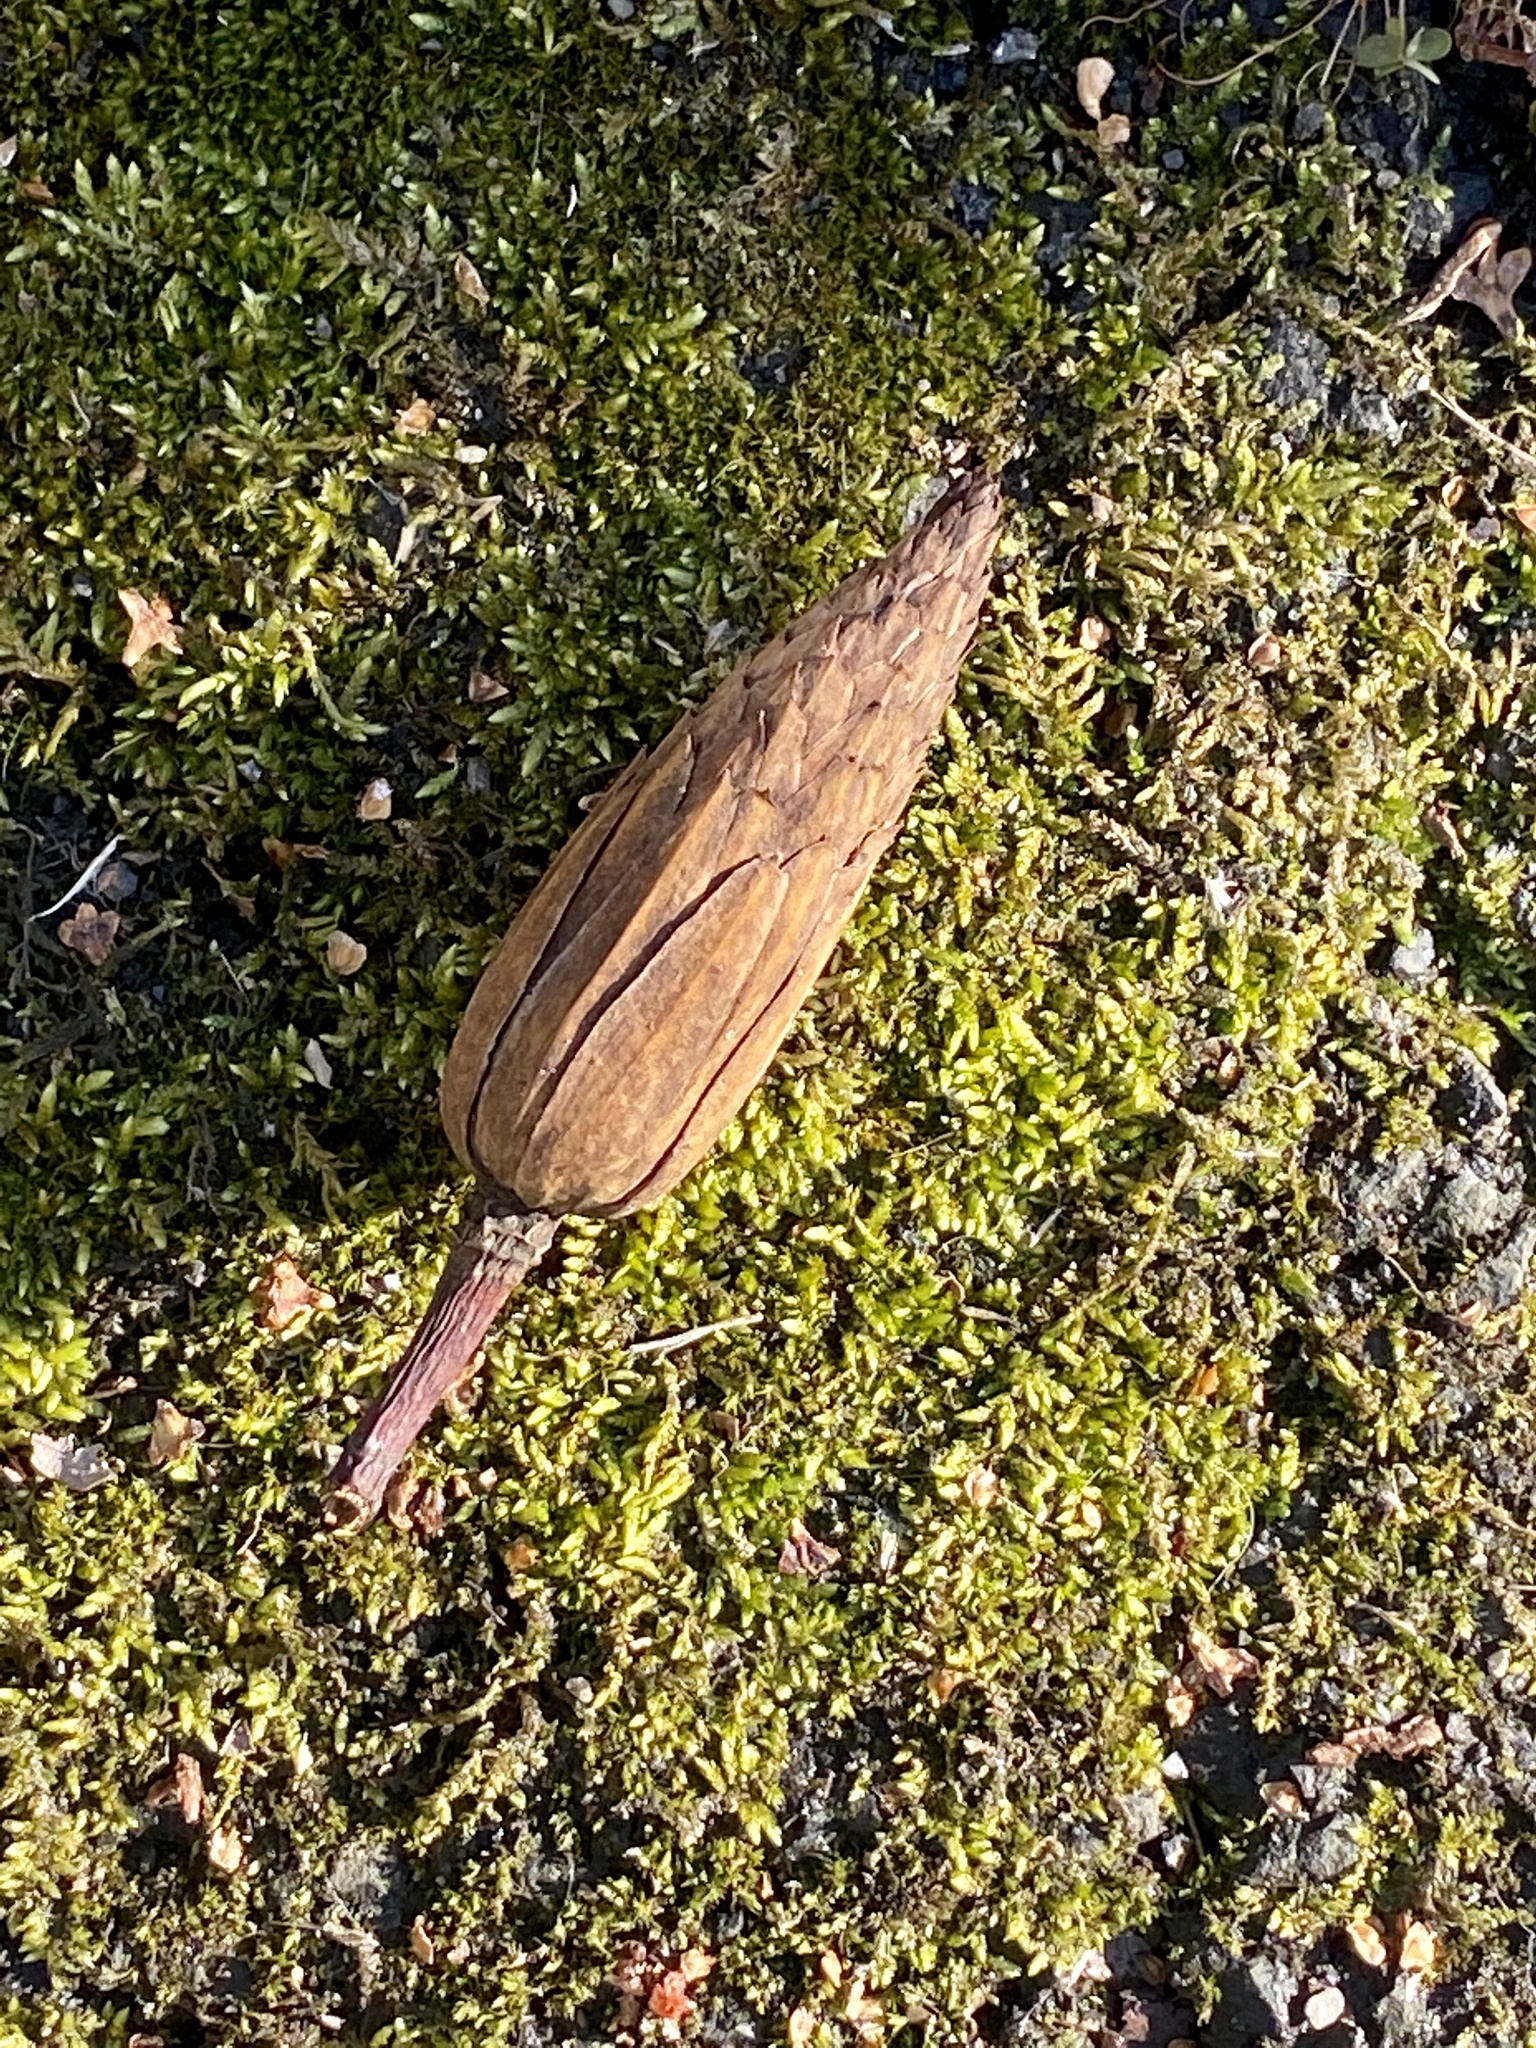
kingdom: Plantae
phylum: Tracheophyta
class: Magnoliopsida
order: Magnoliales
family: Magnoliaceae
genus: Liriodendron
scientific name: Liriodendron tulipifera
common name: Tulip tree
